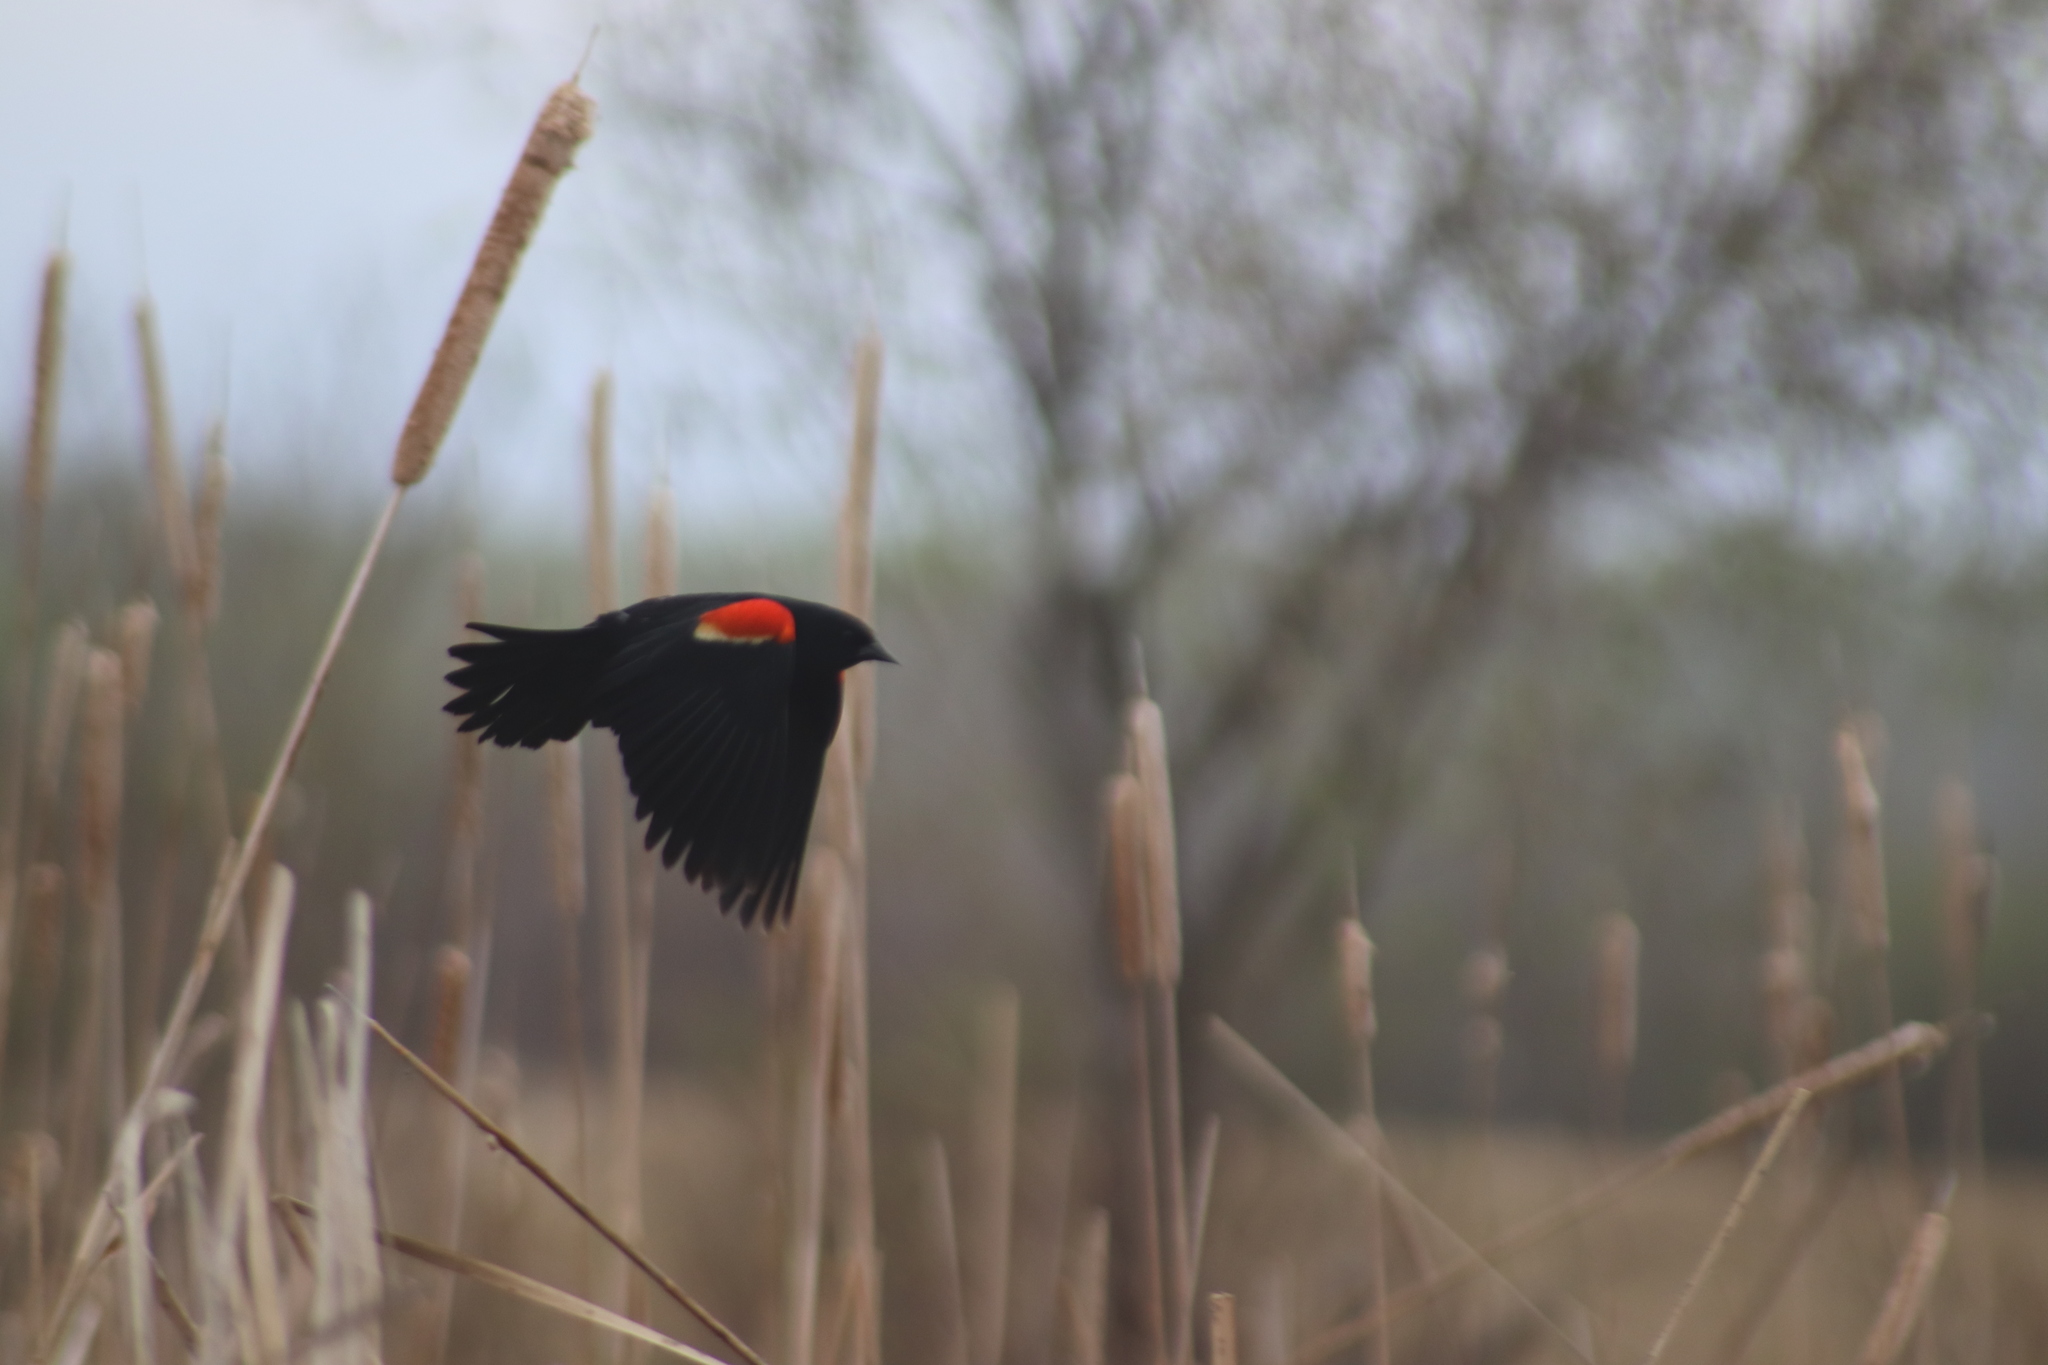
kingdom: Animalia
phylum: Chordata
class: Aves
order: Passeriformes
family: Icteridae
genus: Agelaius
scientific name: Agelaius phoeniceus
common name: Red-winged blackbird
